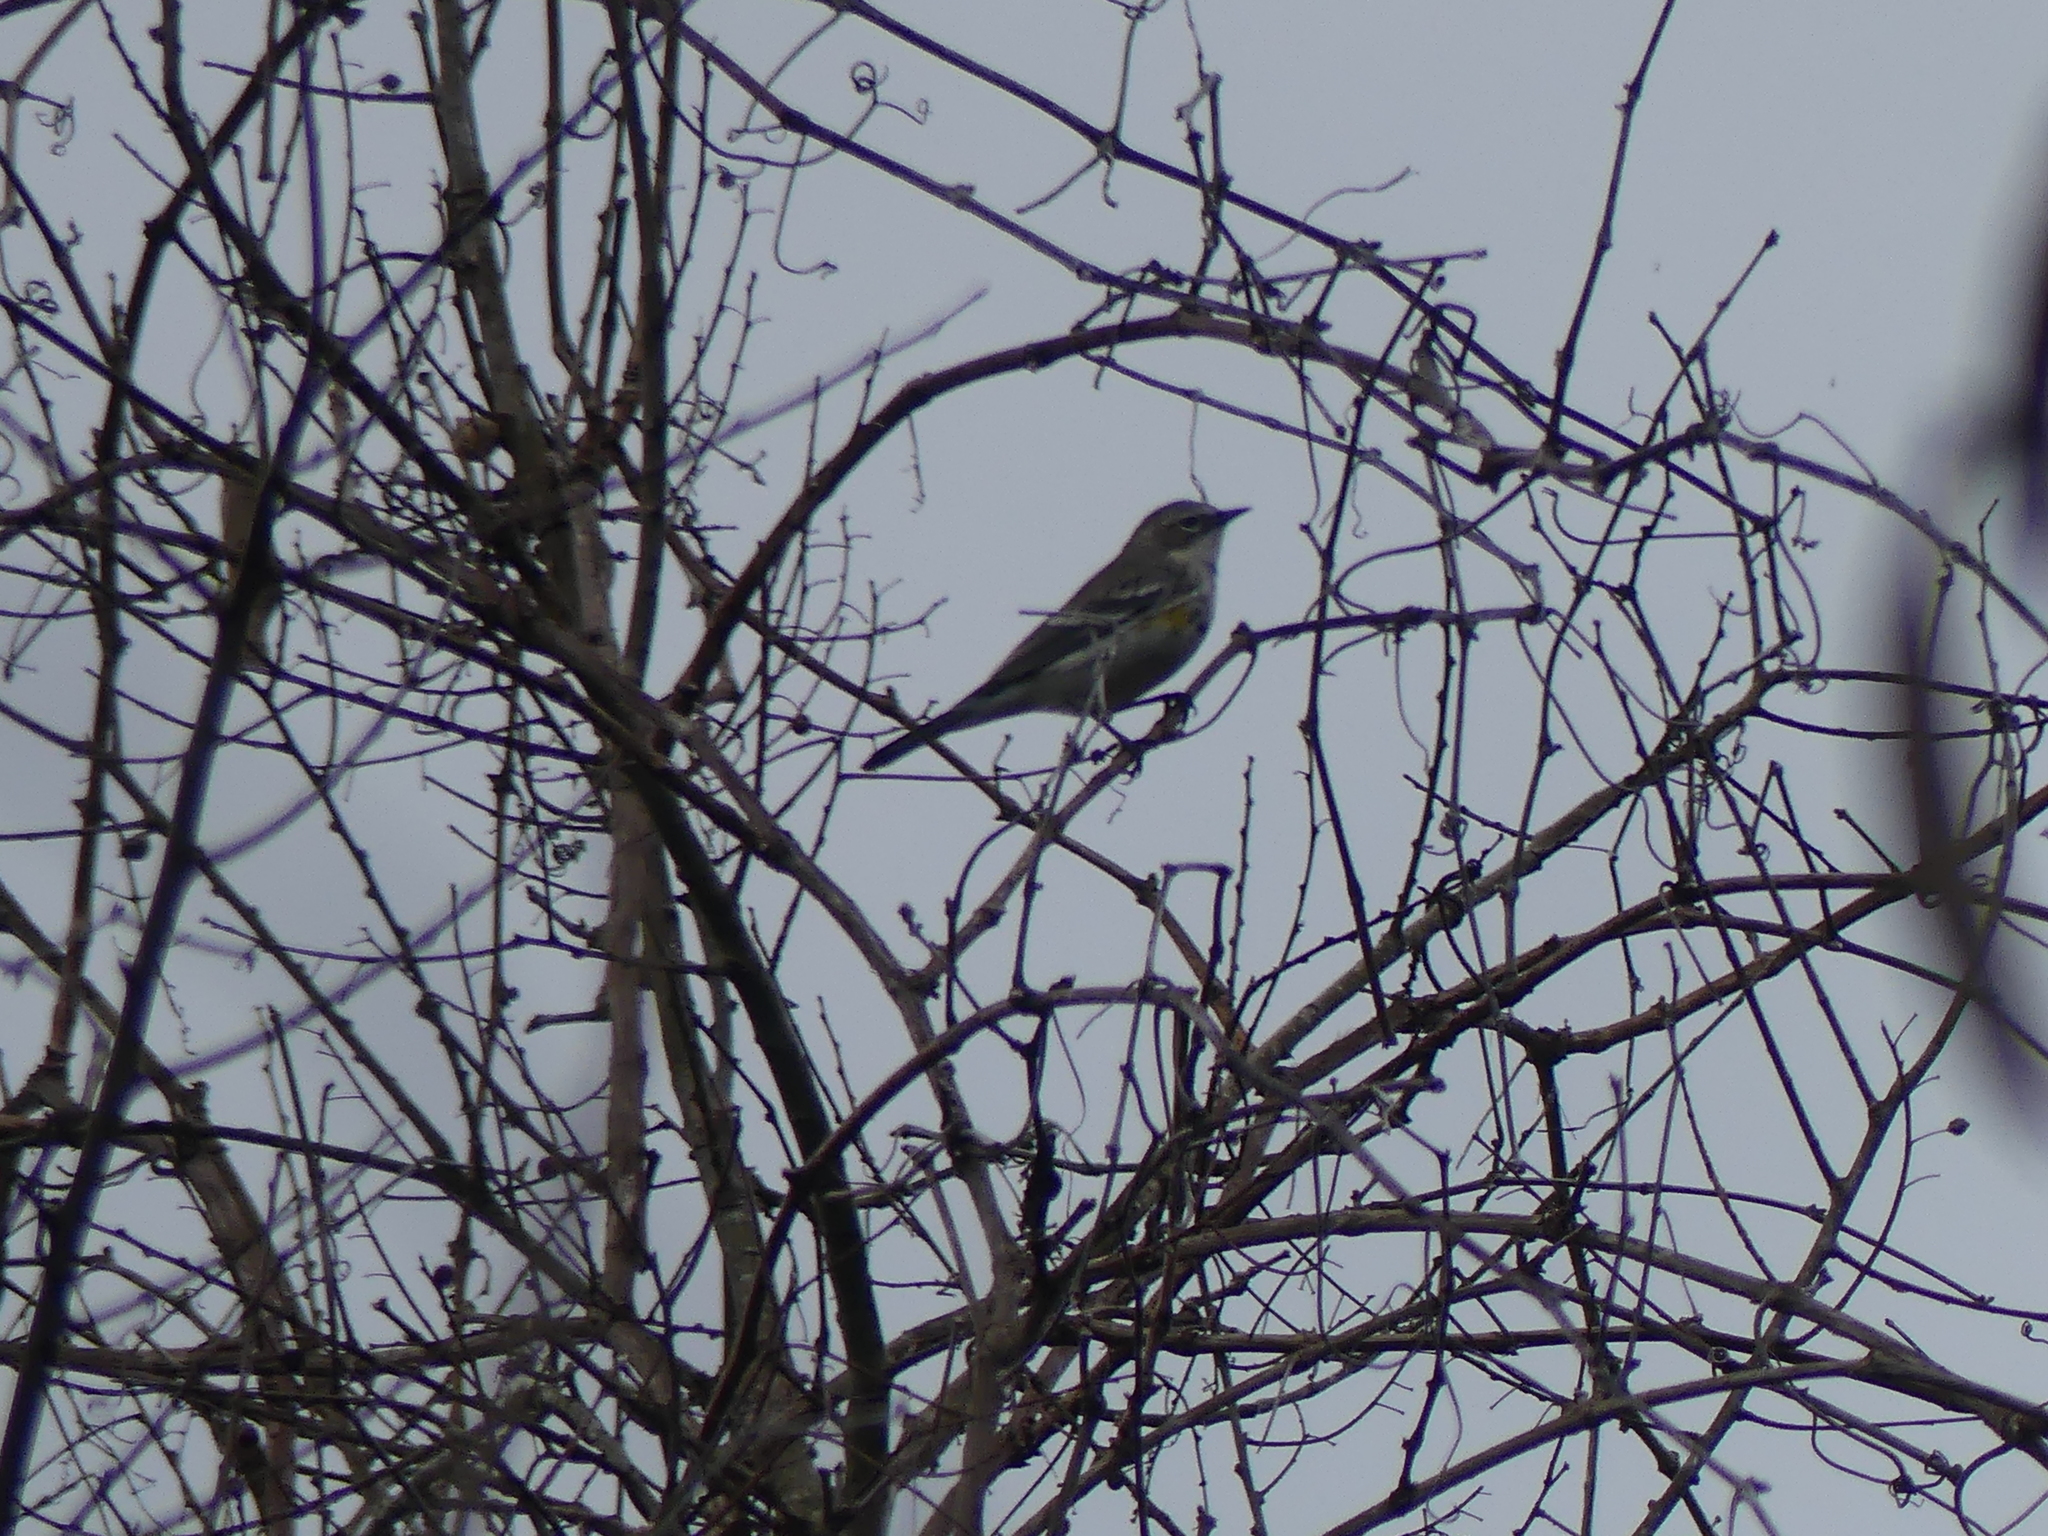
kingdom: Animalia
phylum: Chordata
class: Aves
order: Passeriformes
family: Parulidae
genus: Setophaga
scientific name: Setophaga coronata
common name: Myrtle warbler
